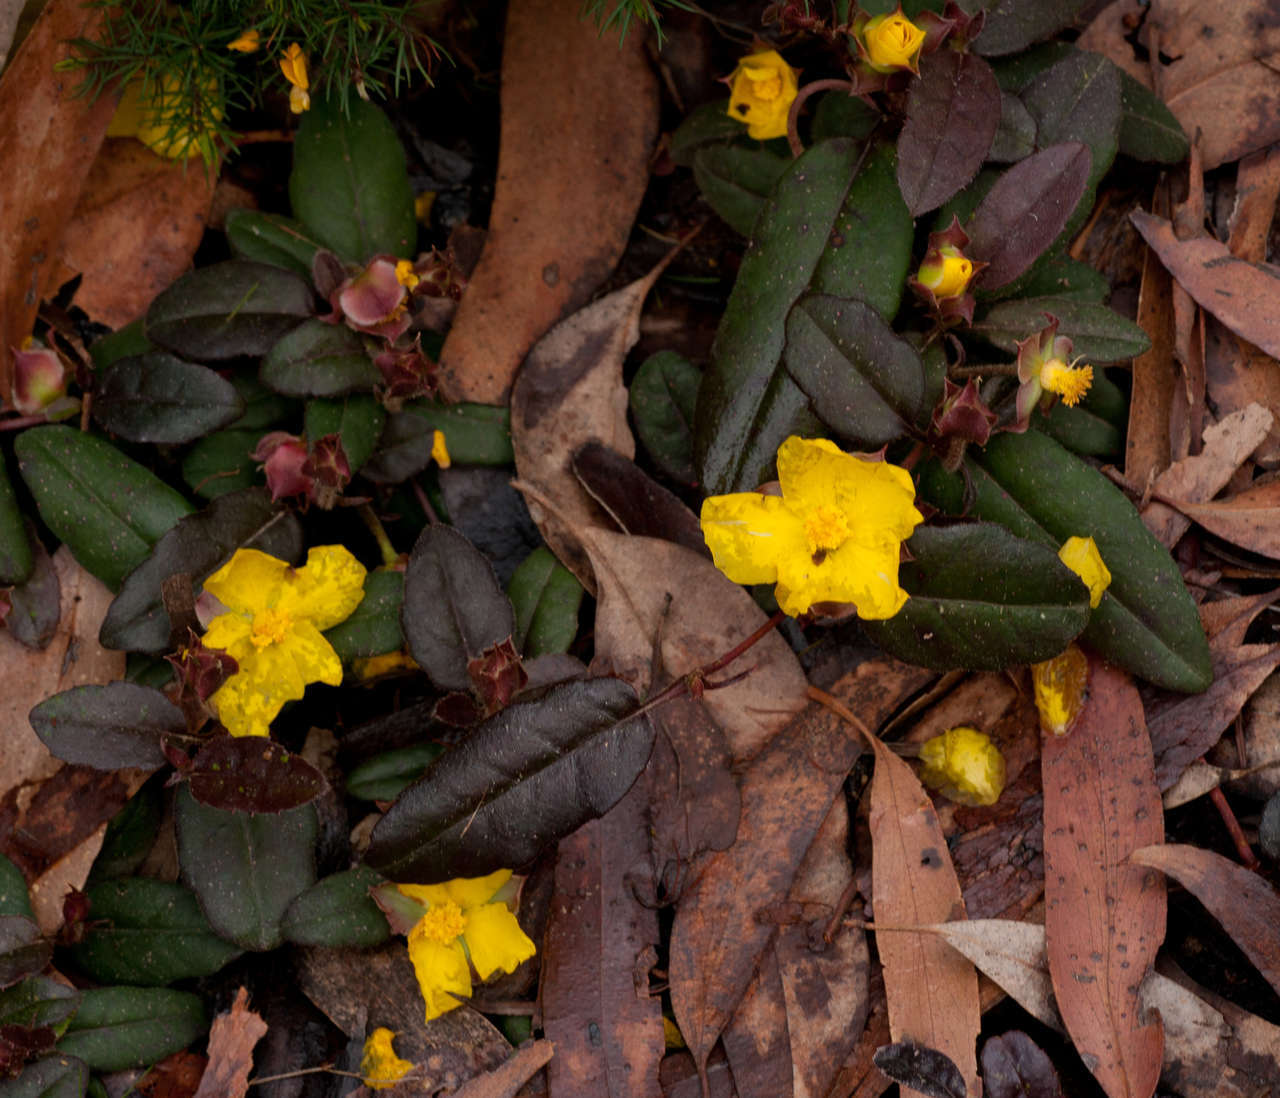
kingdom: Plantae
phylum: Tracheophyta
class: Magnoliopsida
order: Dilleniales
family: Dilleniaceae
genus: Hibbertia
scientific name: Hibbertia dentata
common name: Trailing guinea-flower
